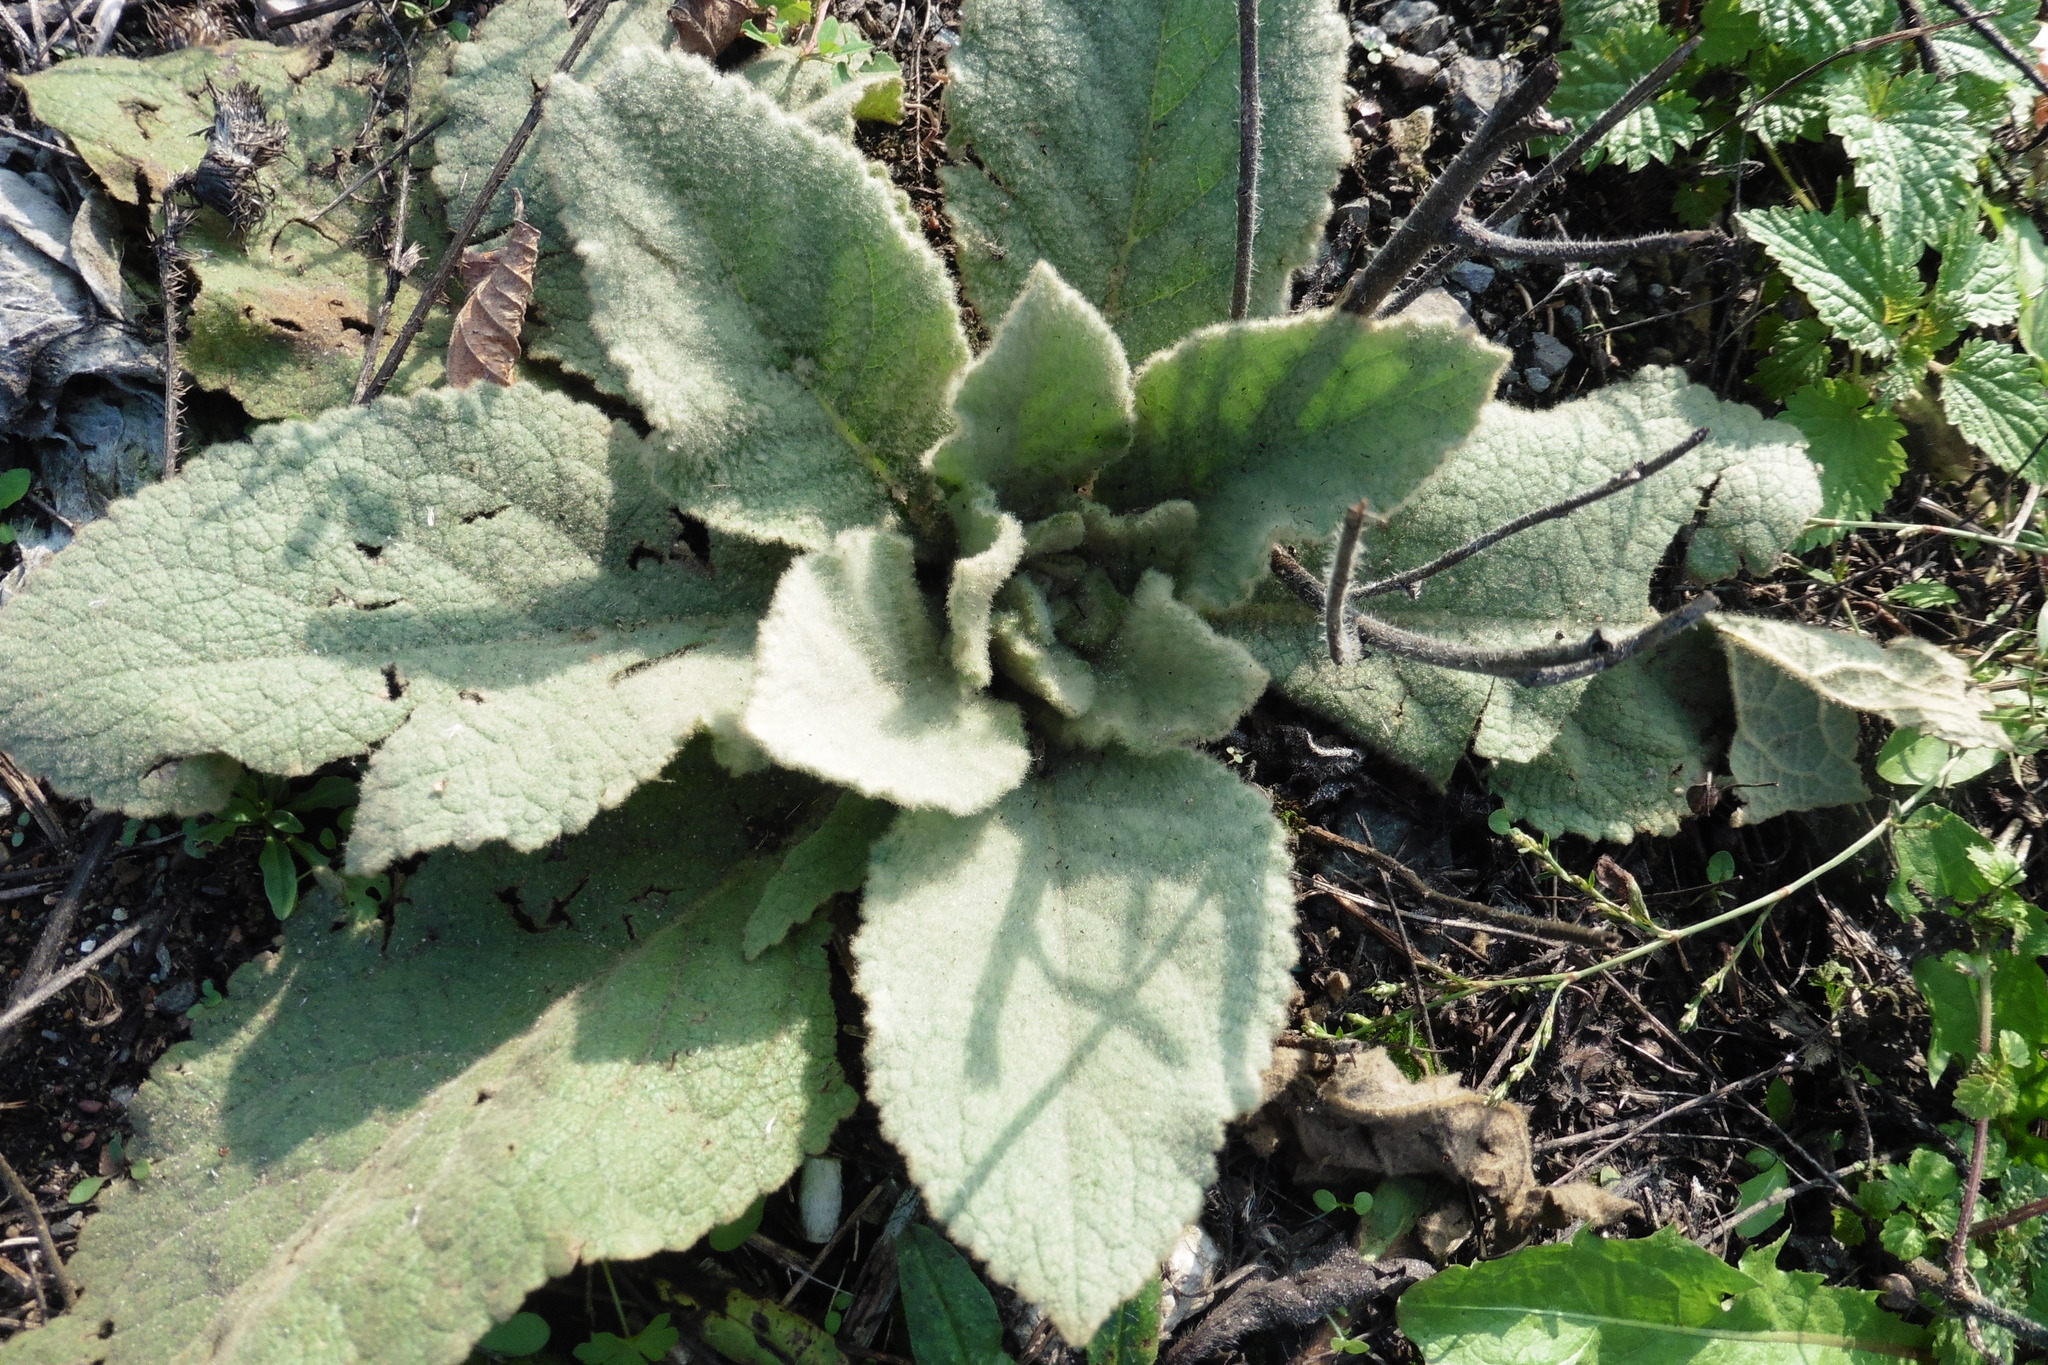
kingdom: Plantae
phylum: Tracheophyta
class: Magnoliopsida
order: Lamiales
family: Scrophulariaceae
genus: Verbascum
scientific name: Verbascum thapsus
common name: Common mullein
